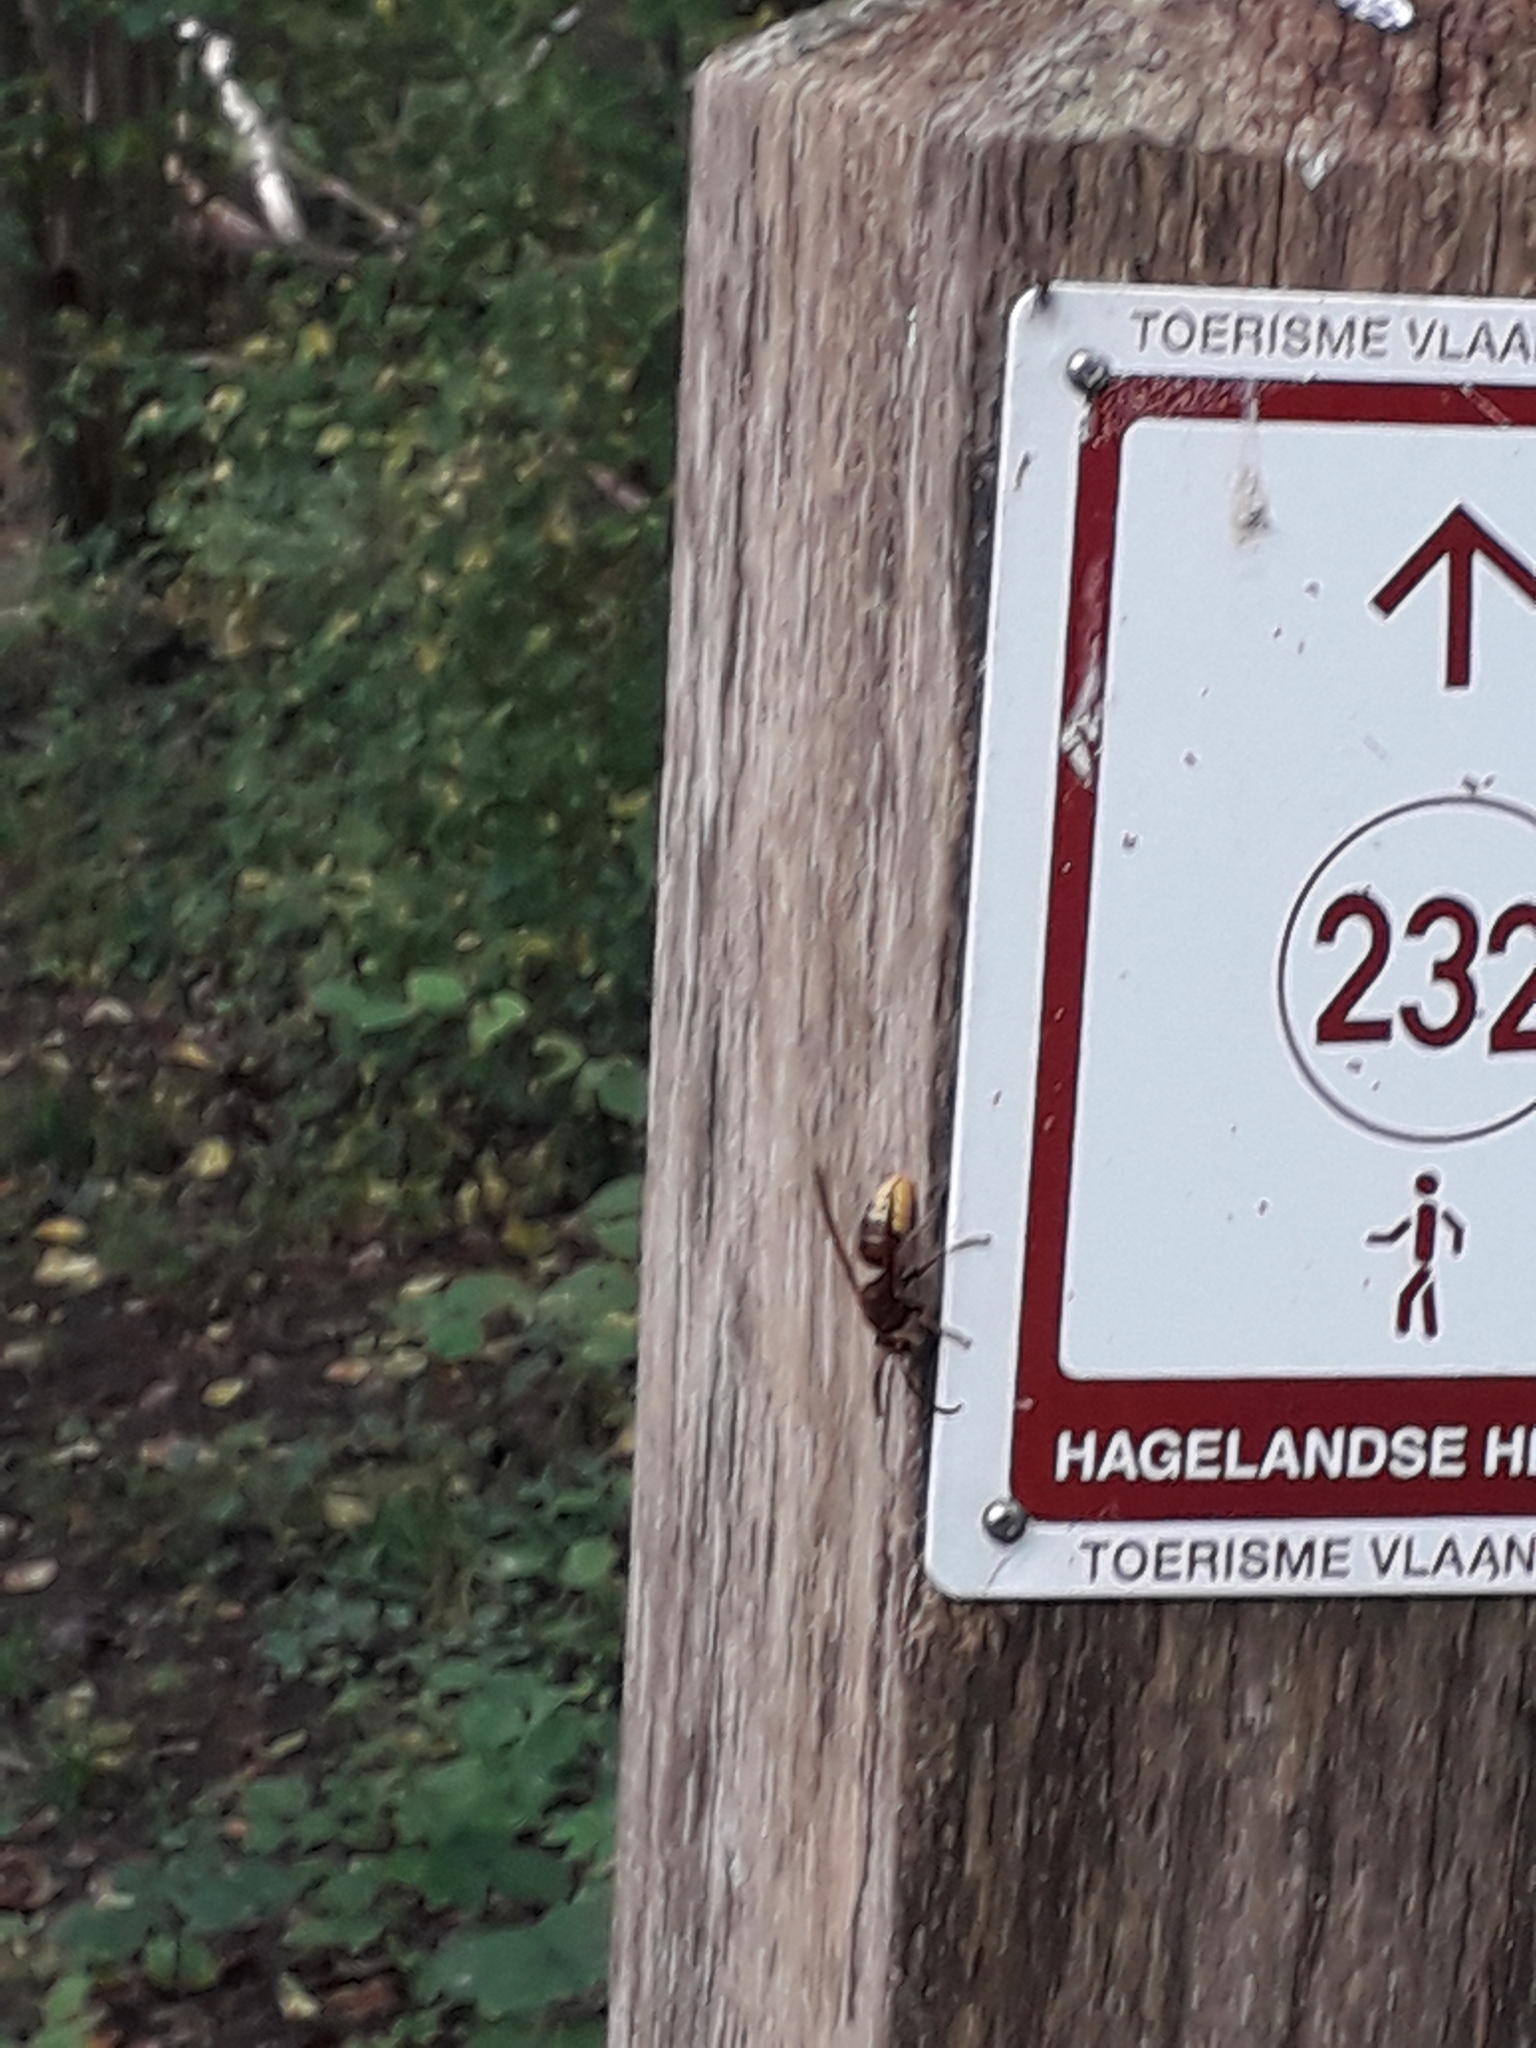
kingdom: Animalia
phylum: Arthropoda
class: Insecta
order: Hymenoptera
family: Vespidae
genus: Vespa
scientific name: Vespa crabro
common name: Hornet
